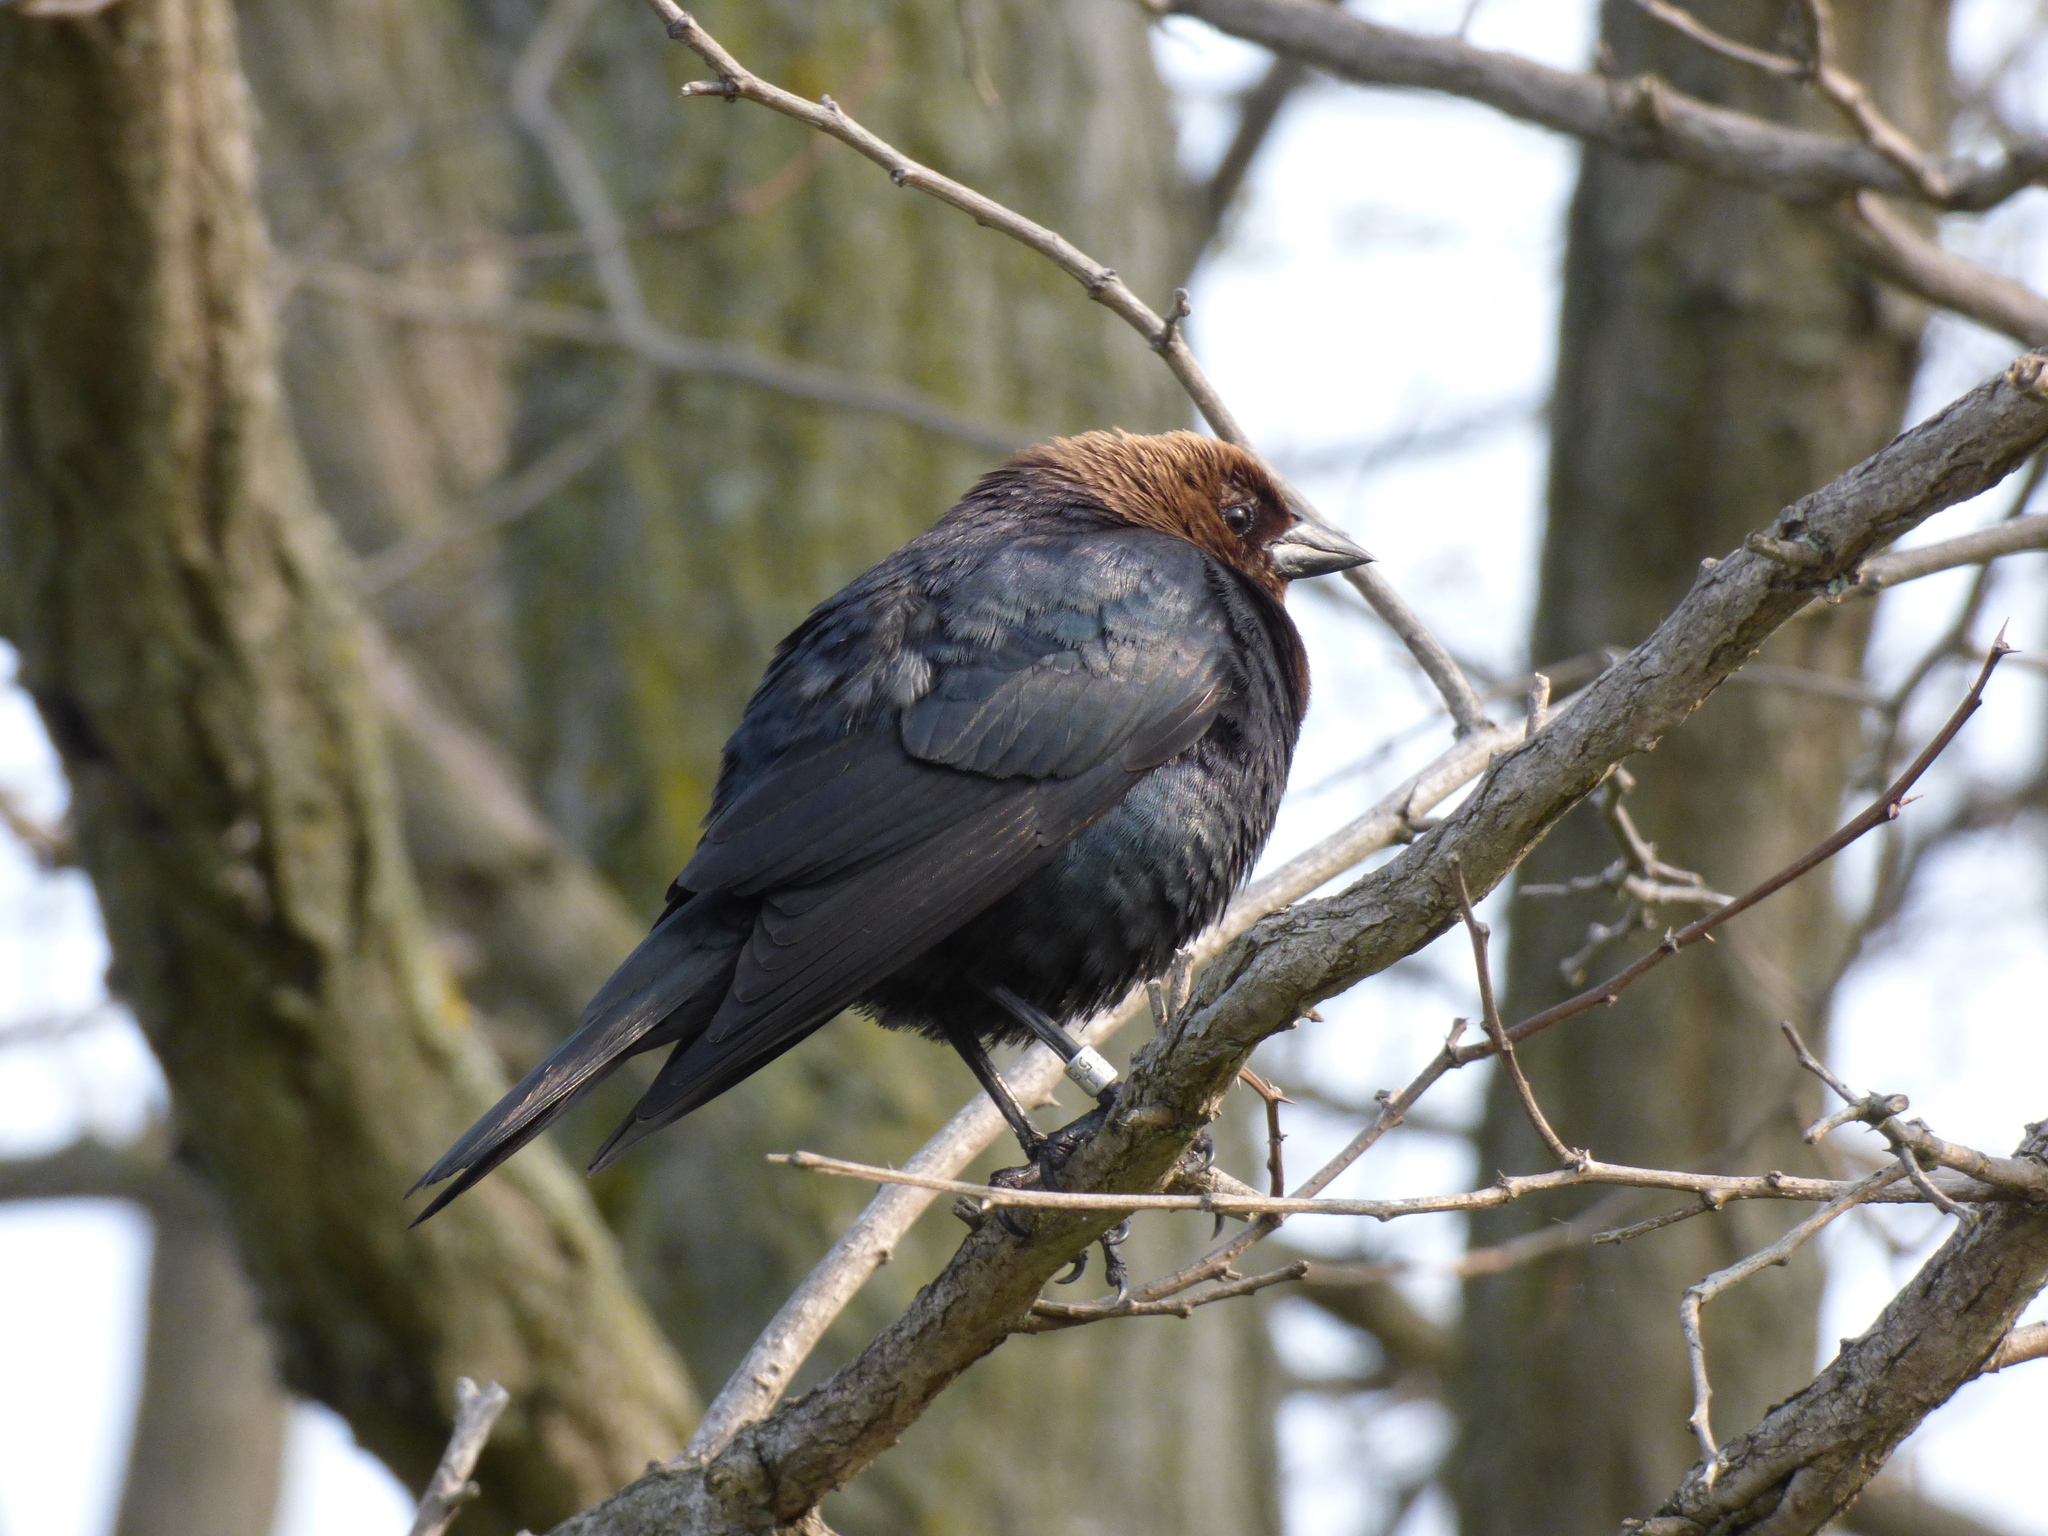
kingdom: Animalia
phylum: Chordata
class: Aves
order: Passeriformes
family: Icteridae
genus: Molothrus
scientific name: Molothrus ater
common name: Brown-headed cowbird
